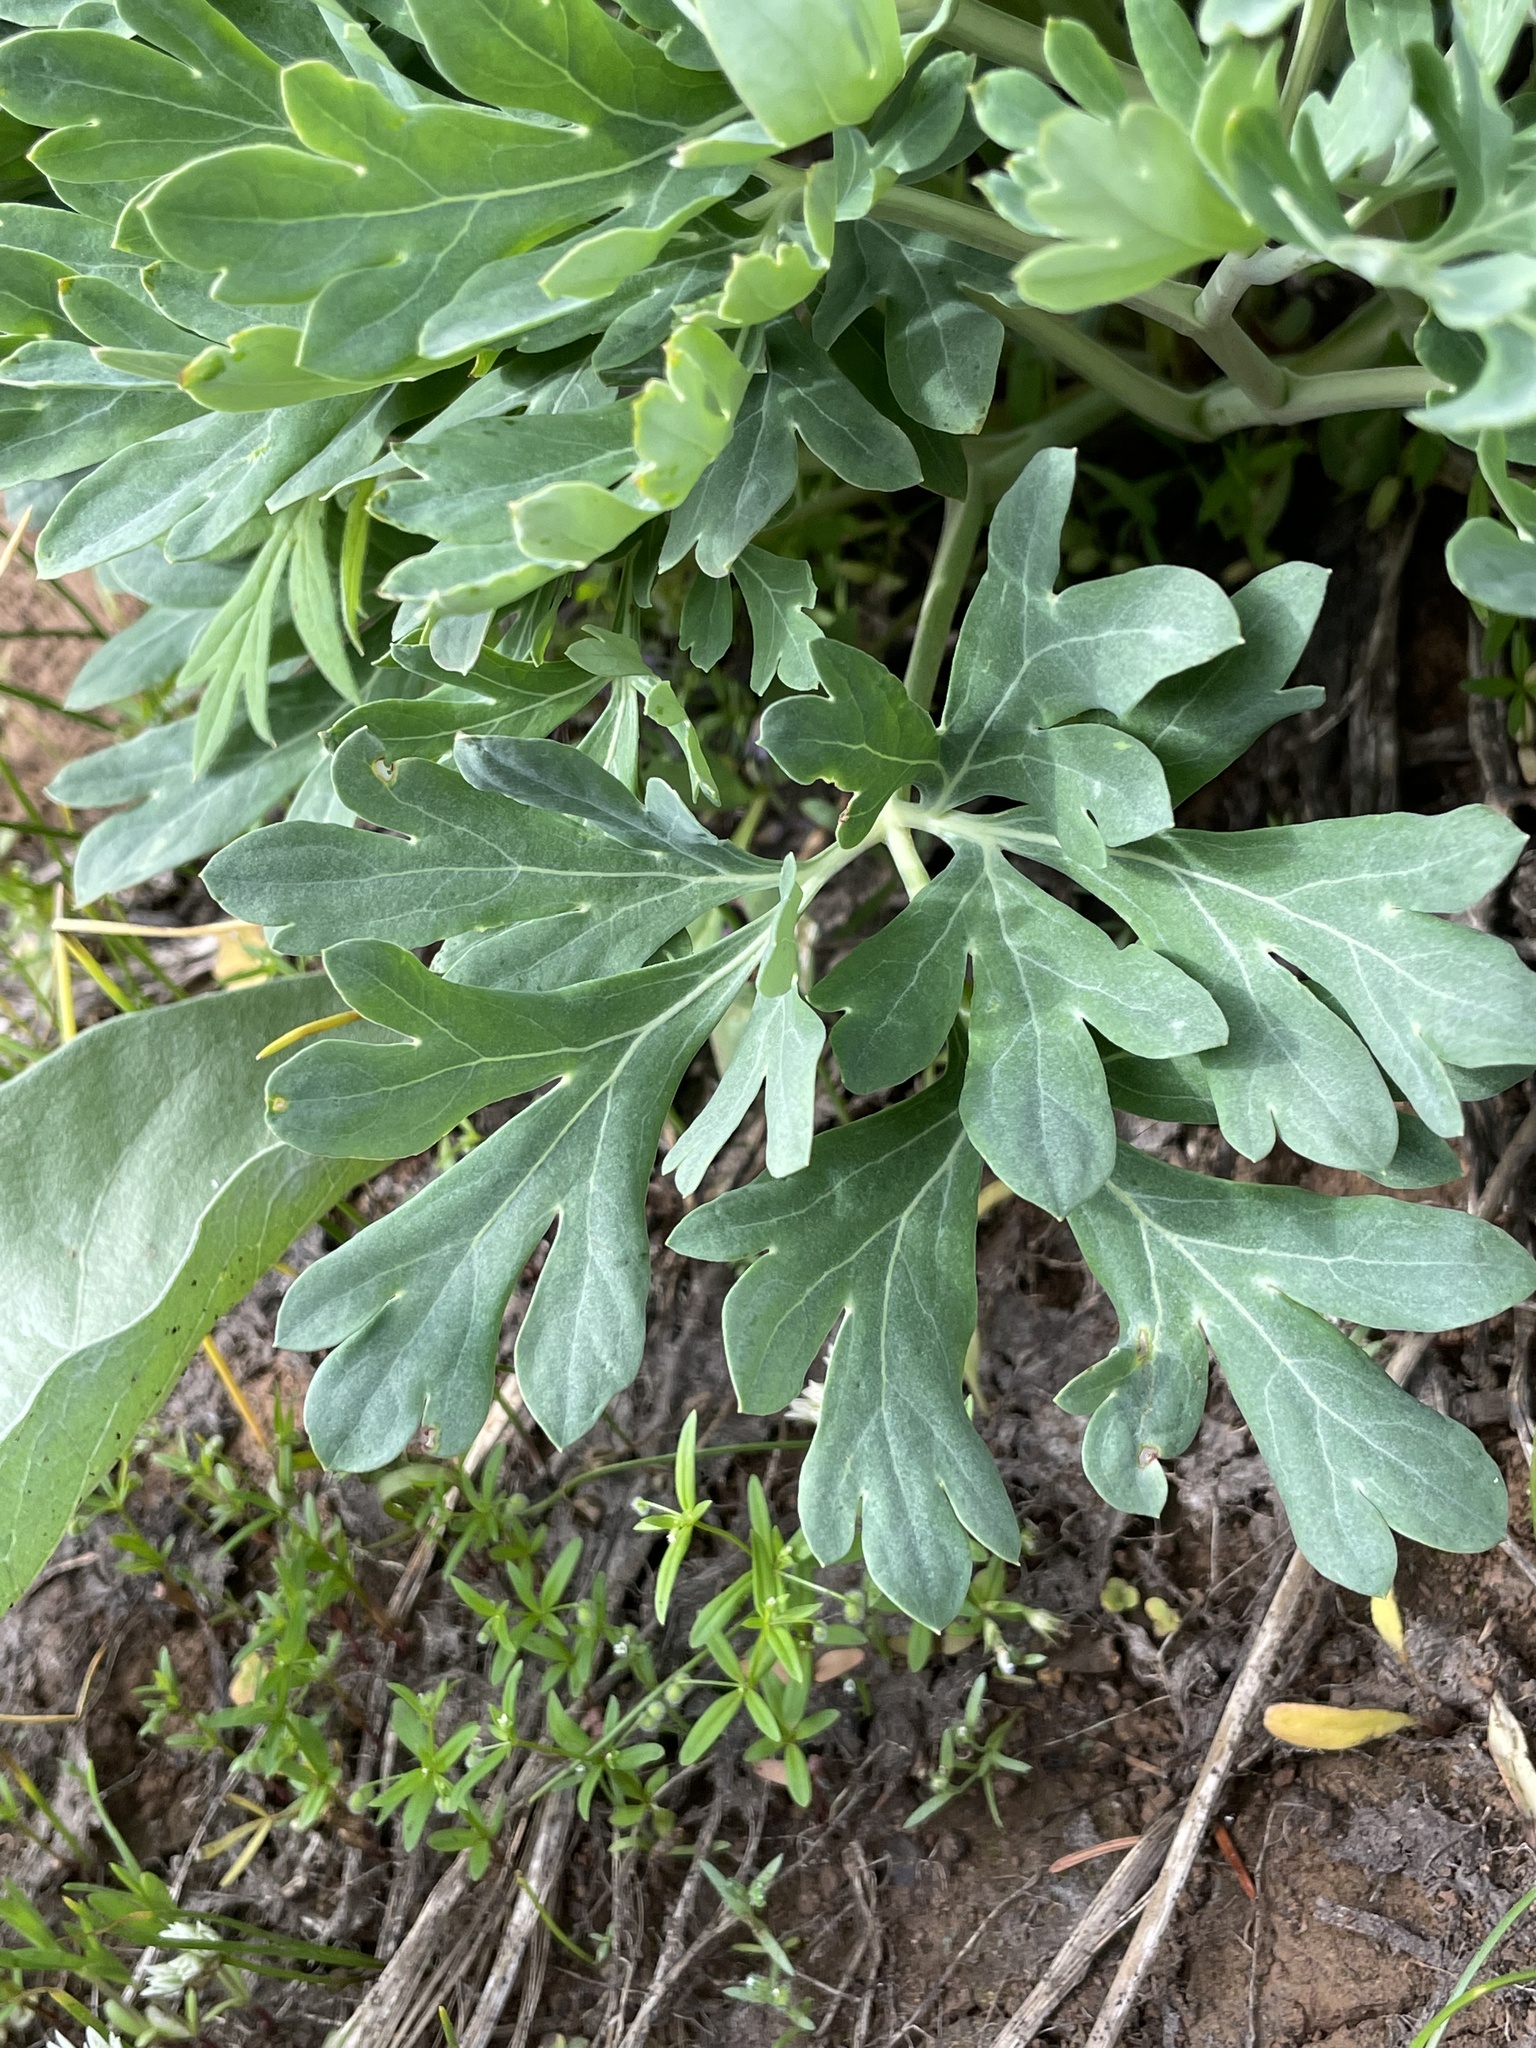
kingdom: Plantae
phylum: Tracheophyta
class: Magnoliopsida
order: Saxifragales
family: Paeoniaceae
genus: Paeonia
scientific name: Paeonia brownii
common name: Brown's peony
